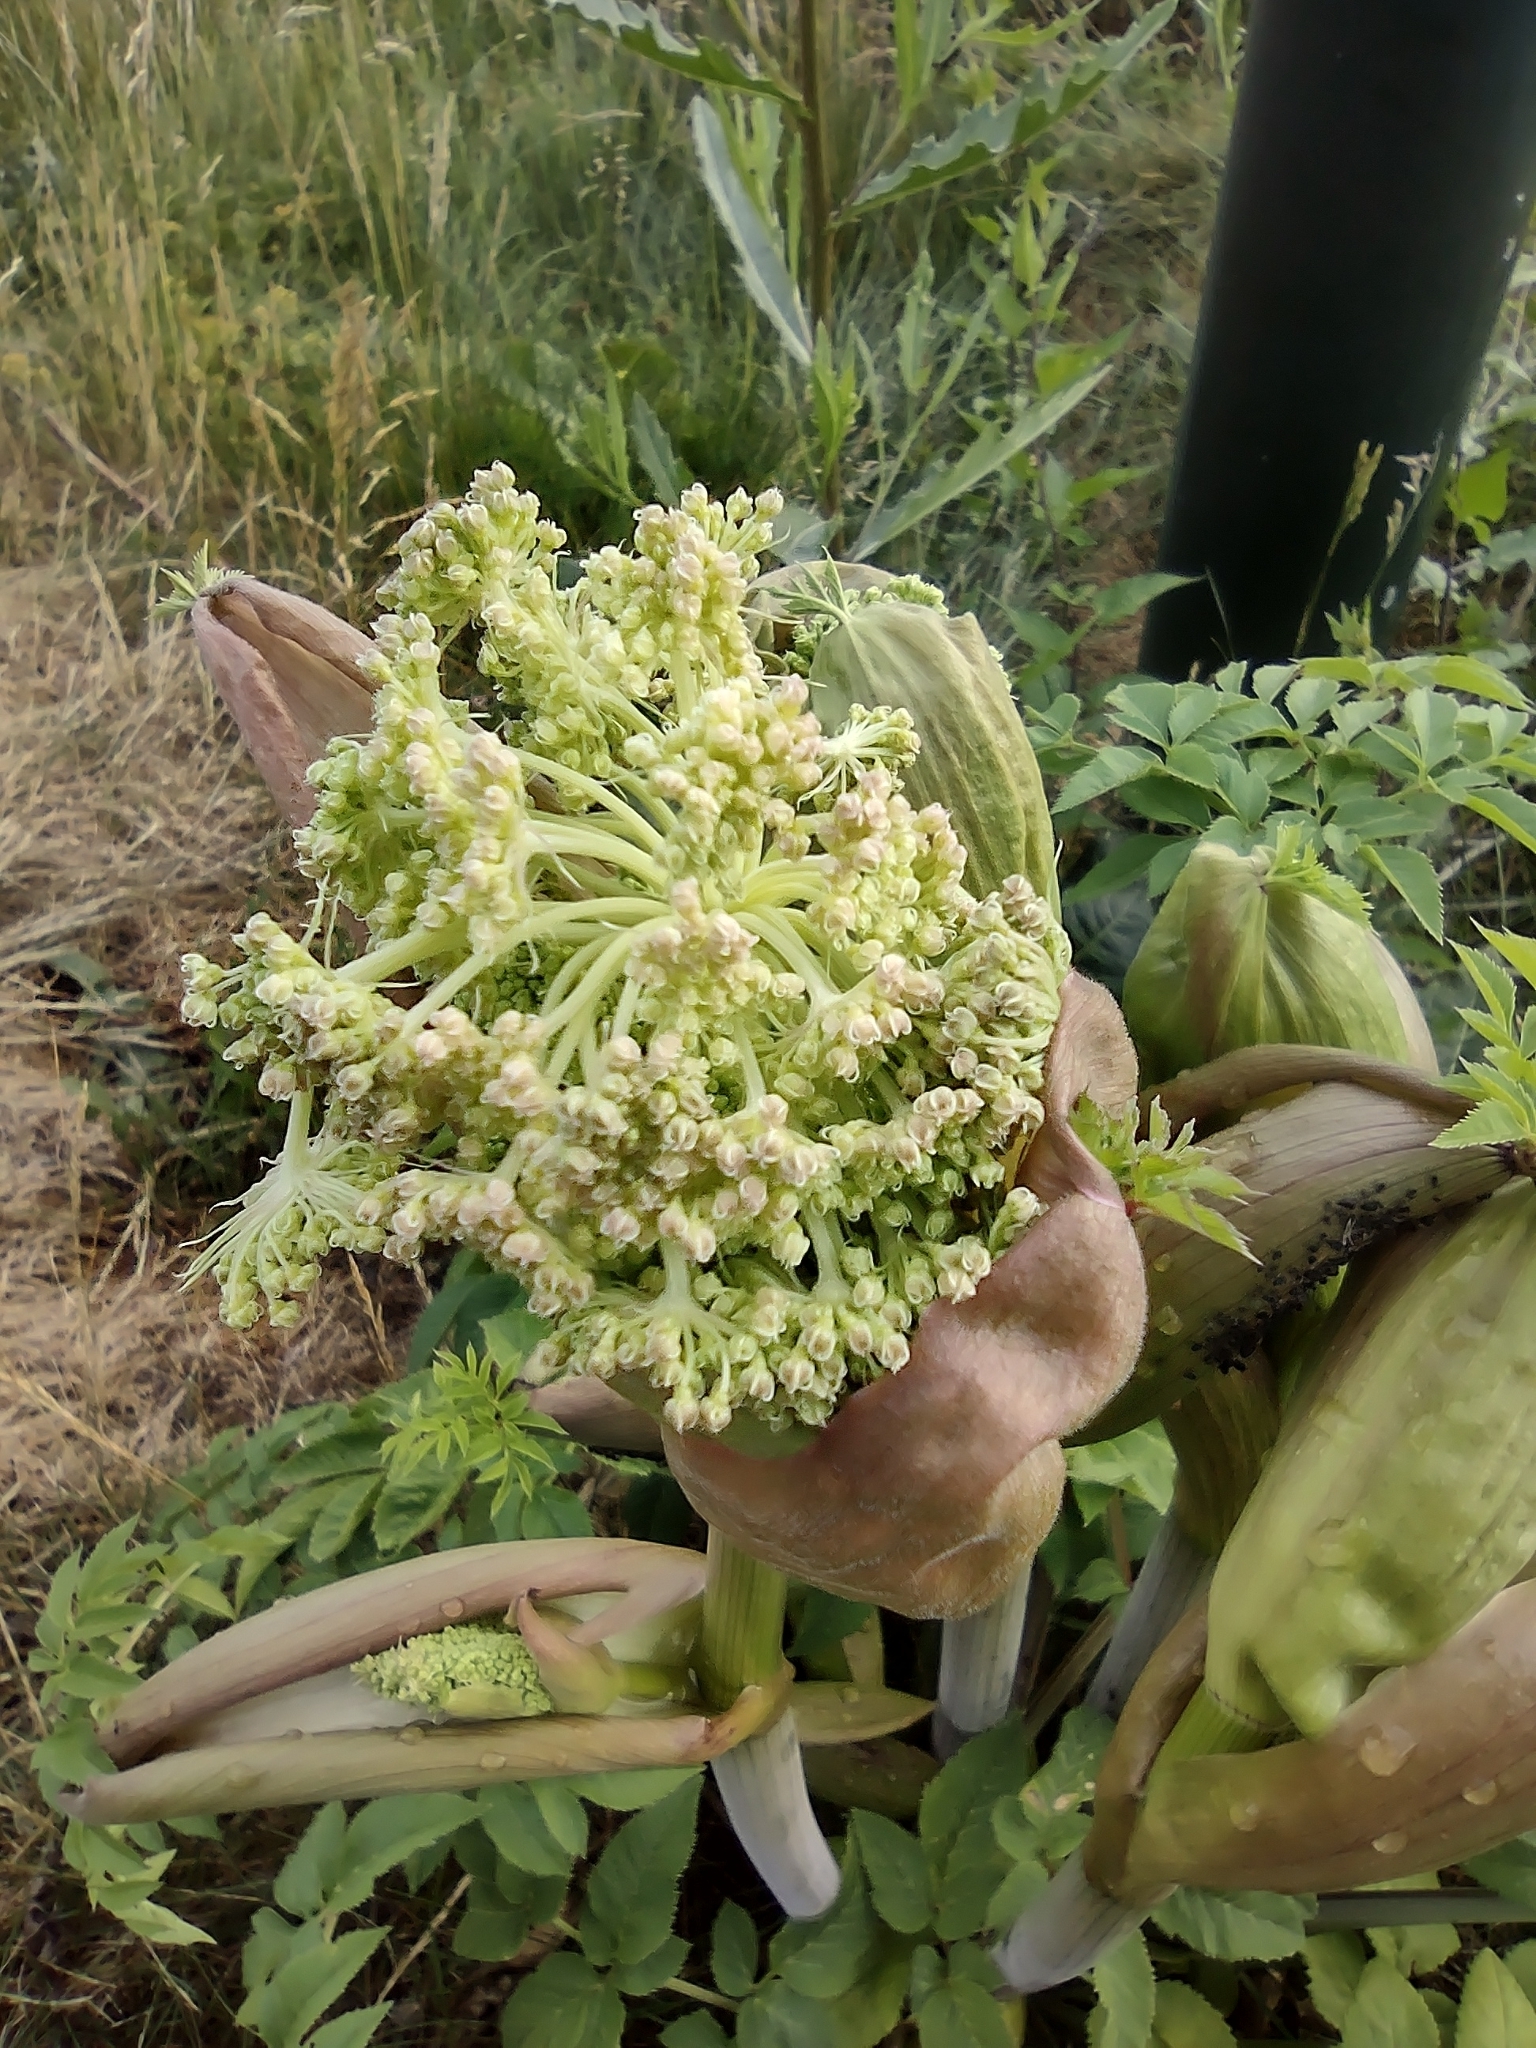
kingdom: Plantae
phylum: Tracheophyta
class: Magnoliopsida
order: Apiales
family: Apiaceae
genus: Angelica
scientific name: Angelica sylvestris
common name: Wild angelica
